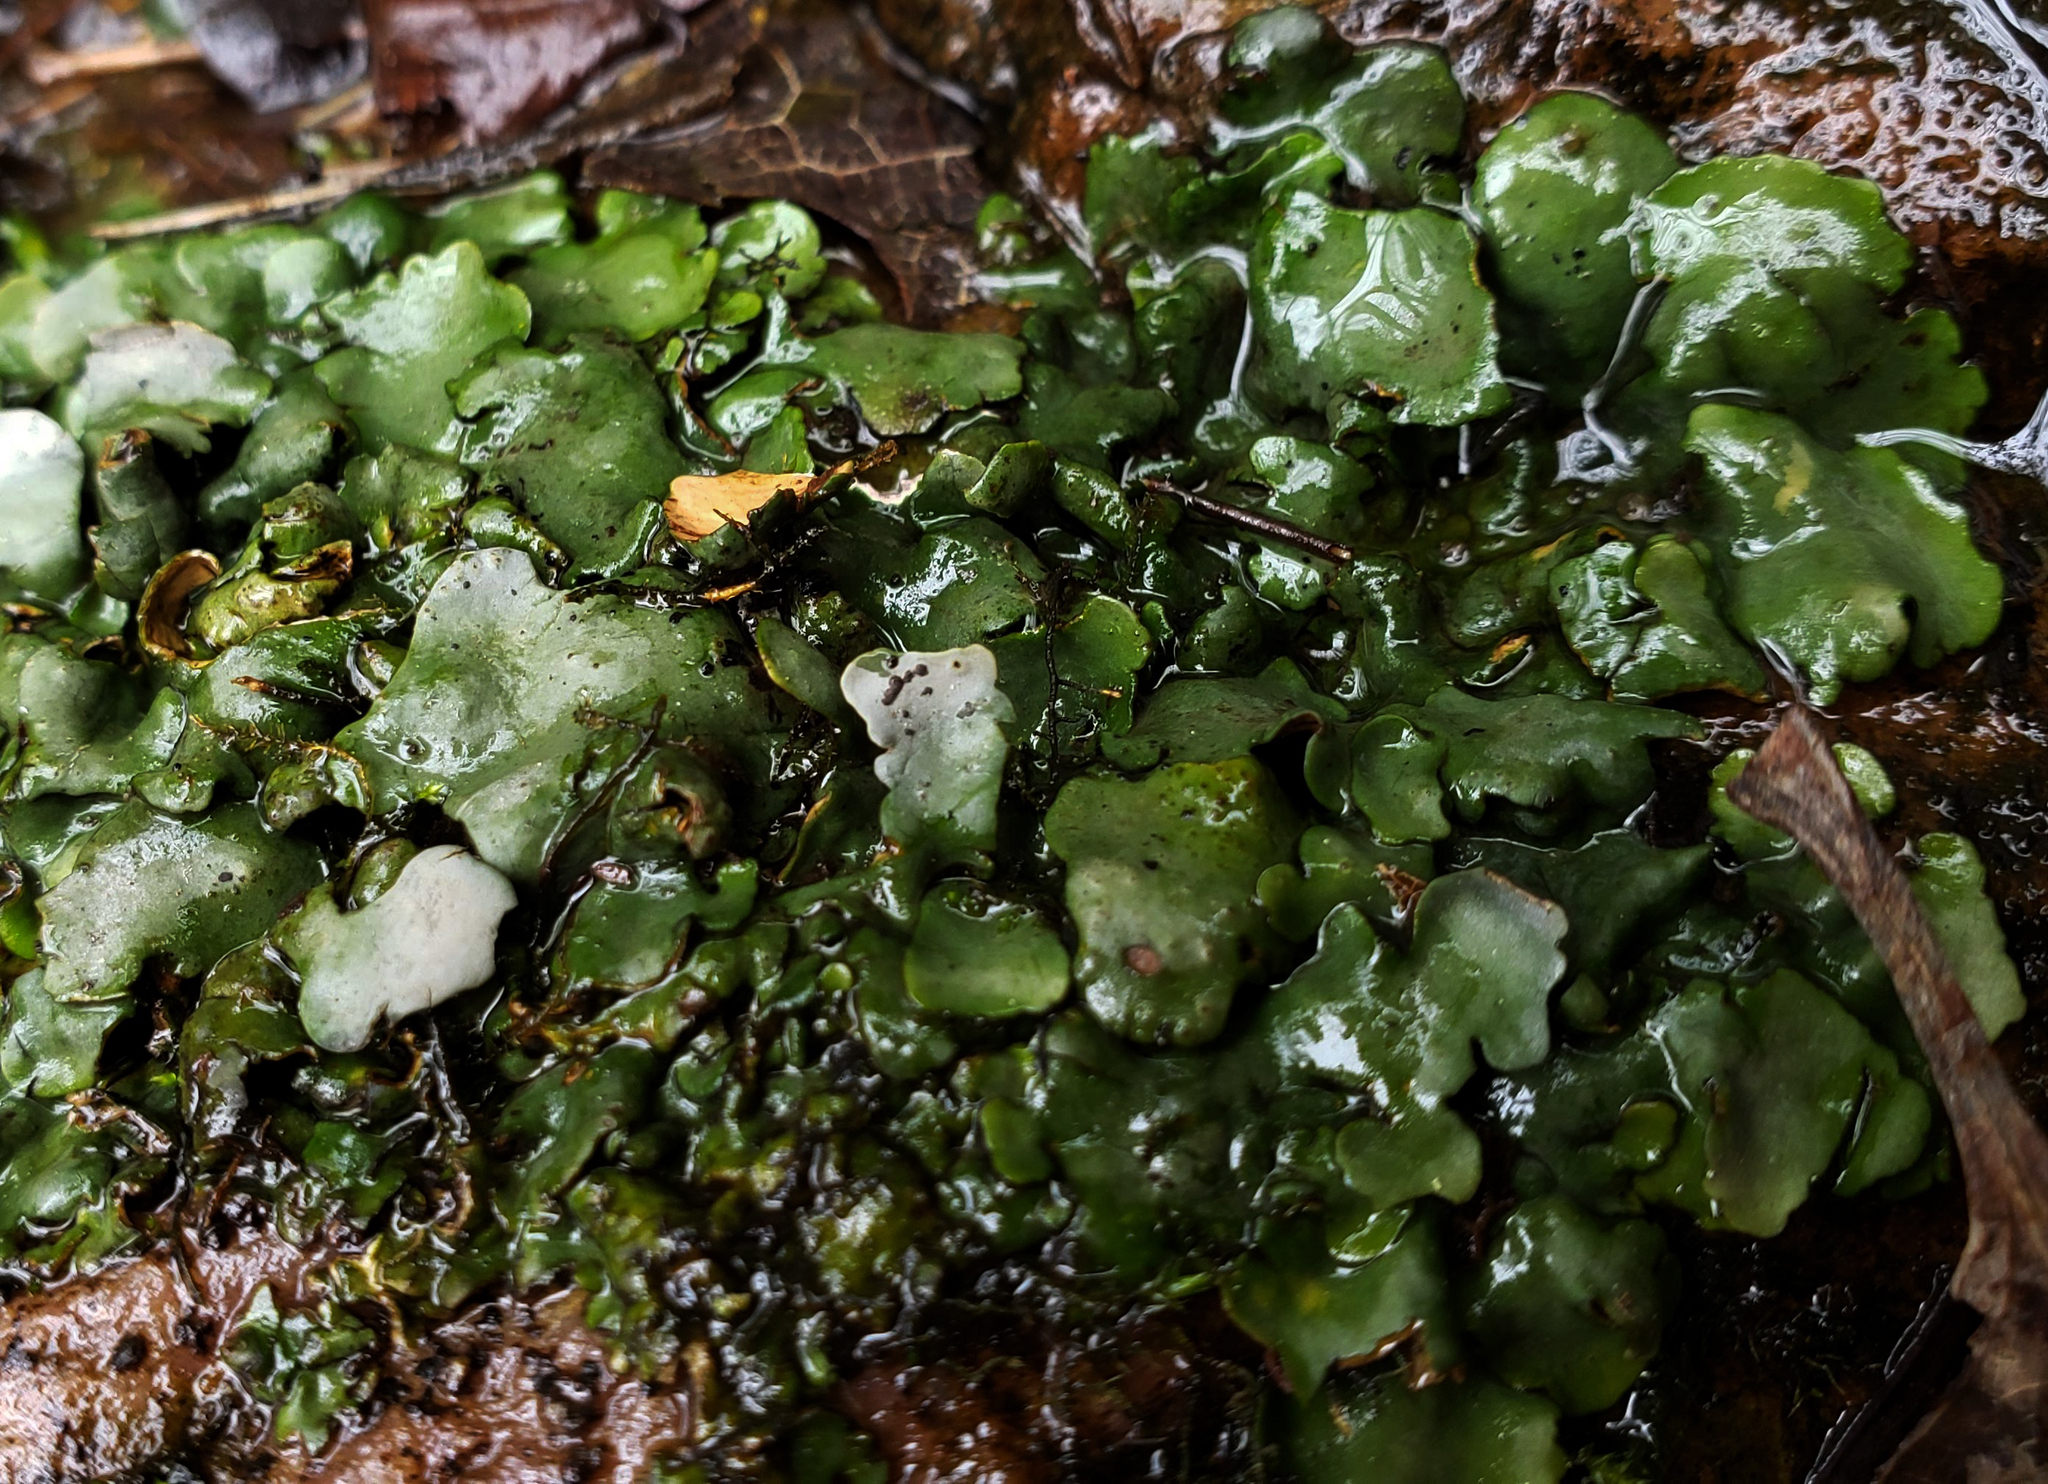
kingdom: Fungi
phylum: Ascomycota
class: Eurotiomycetes
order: Verrucariales
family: Verrucariaceae
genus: Dermatocarpon
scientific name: Dermatocarpon luridum
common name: Brook stippleback lichen
